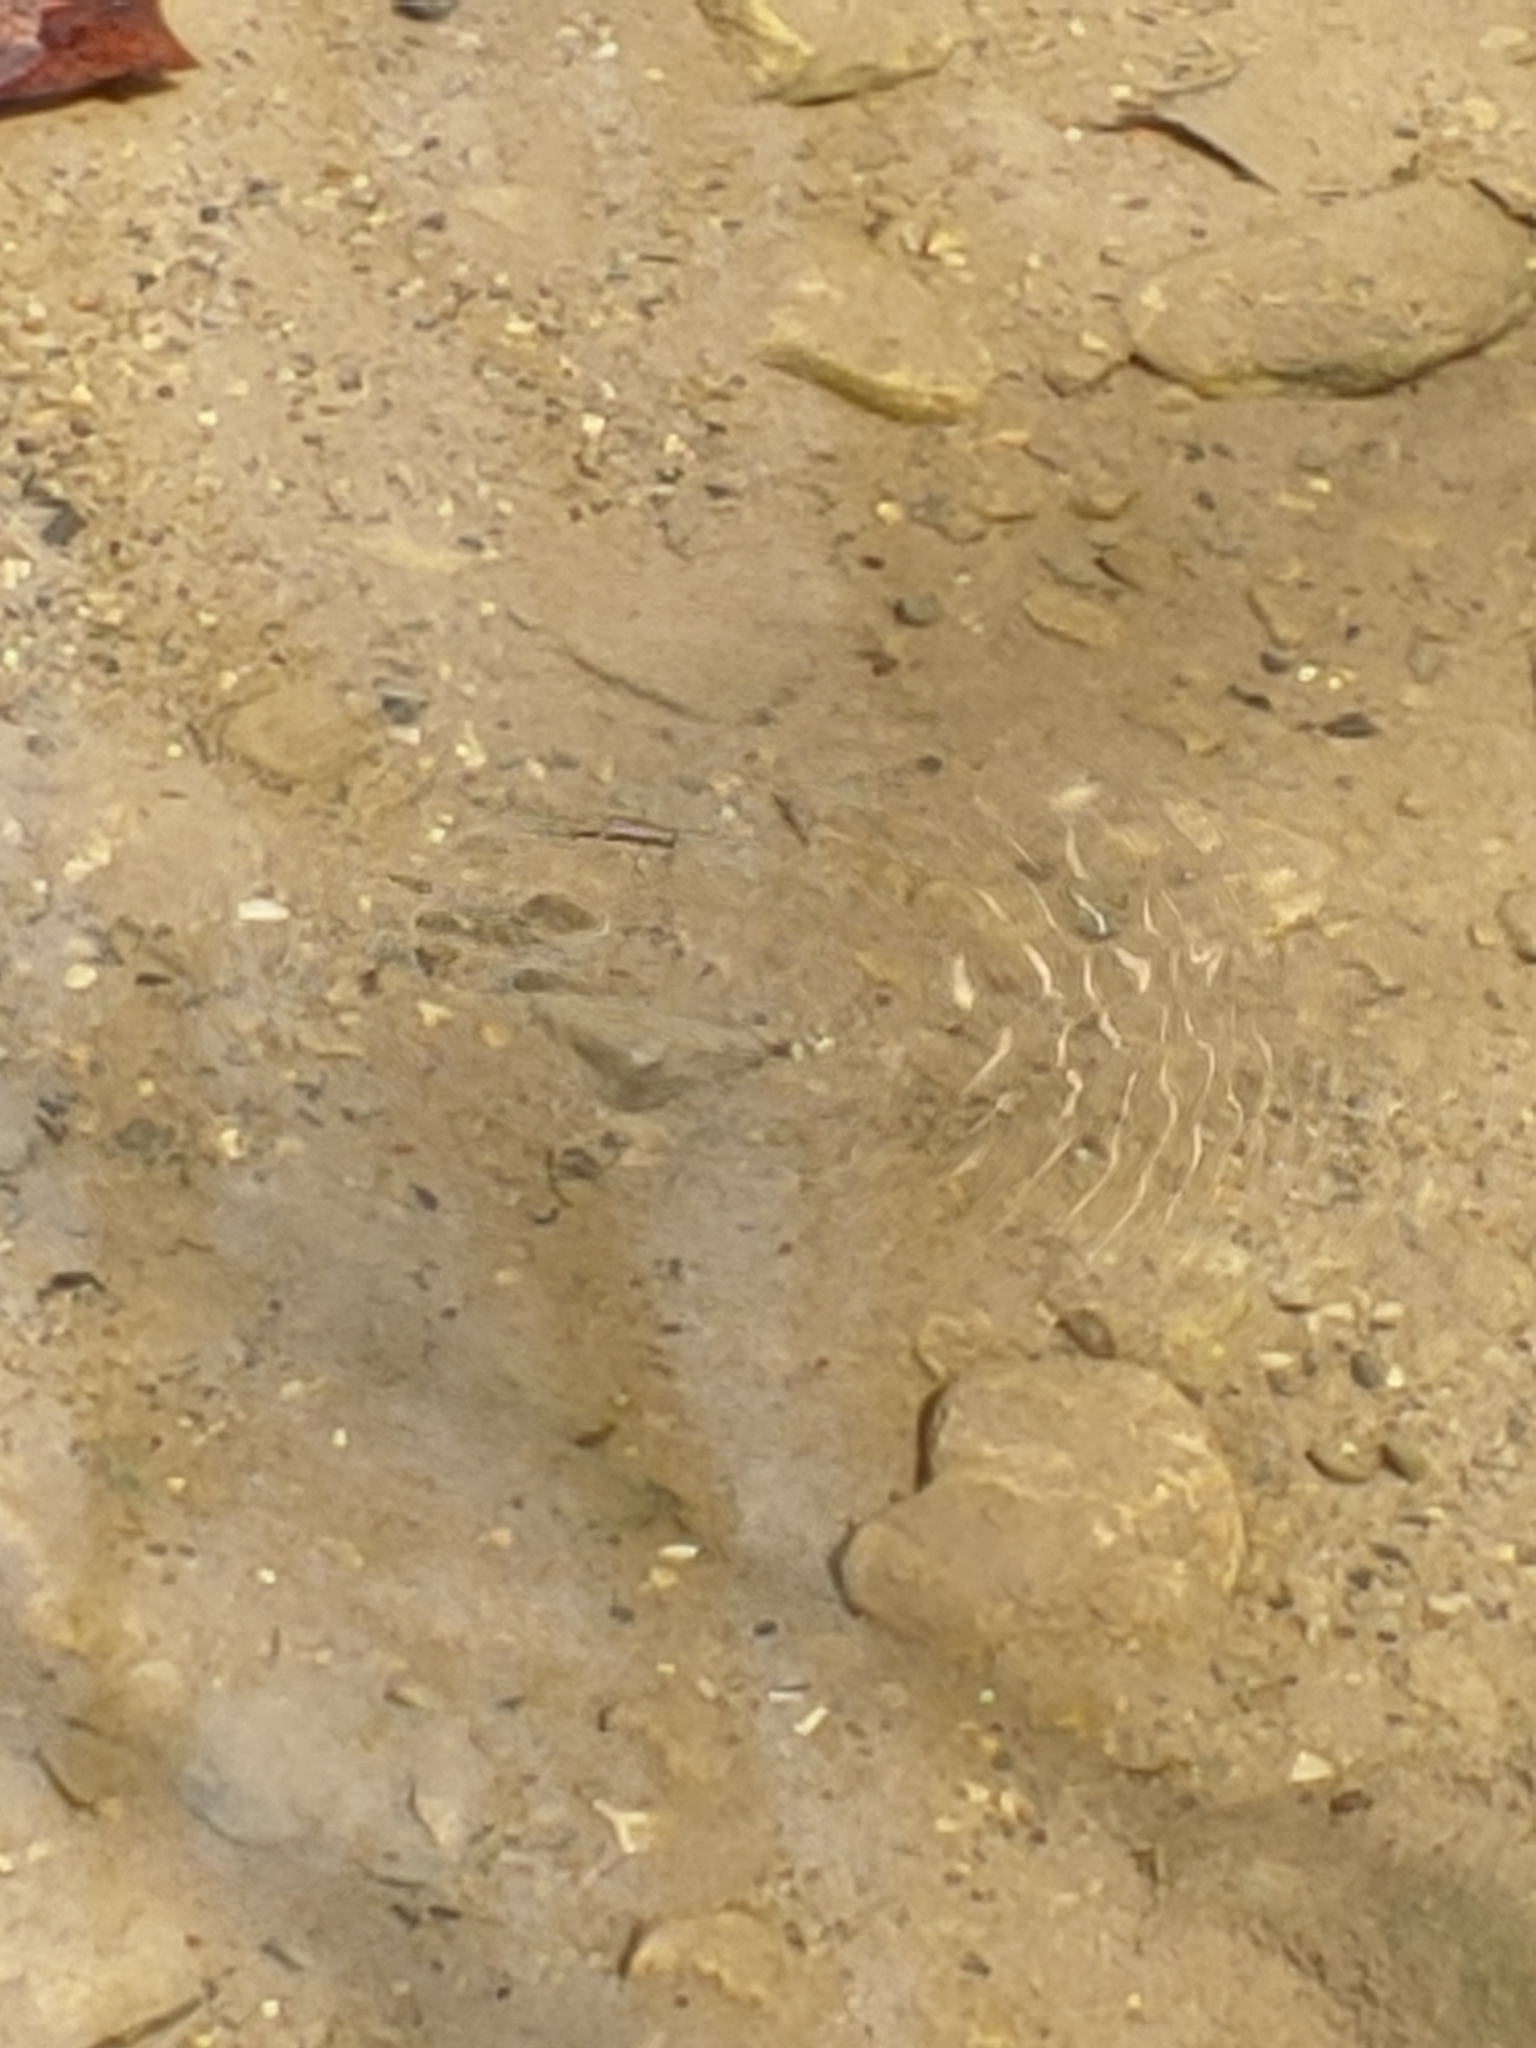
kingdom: Animalia
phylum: Arthropoda
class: Insecta
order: Hemiptera
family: Gerridae
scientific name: Gerridae
